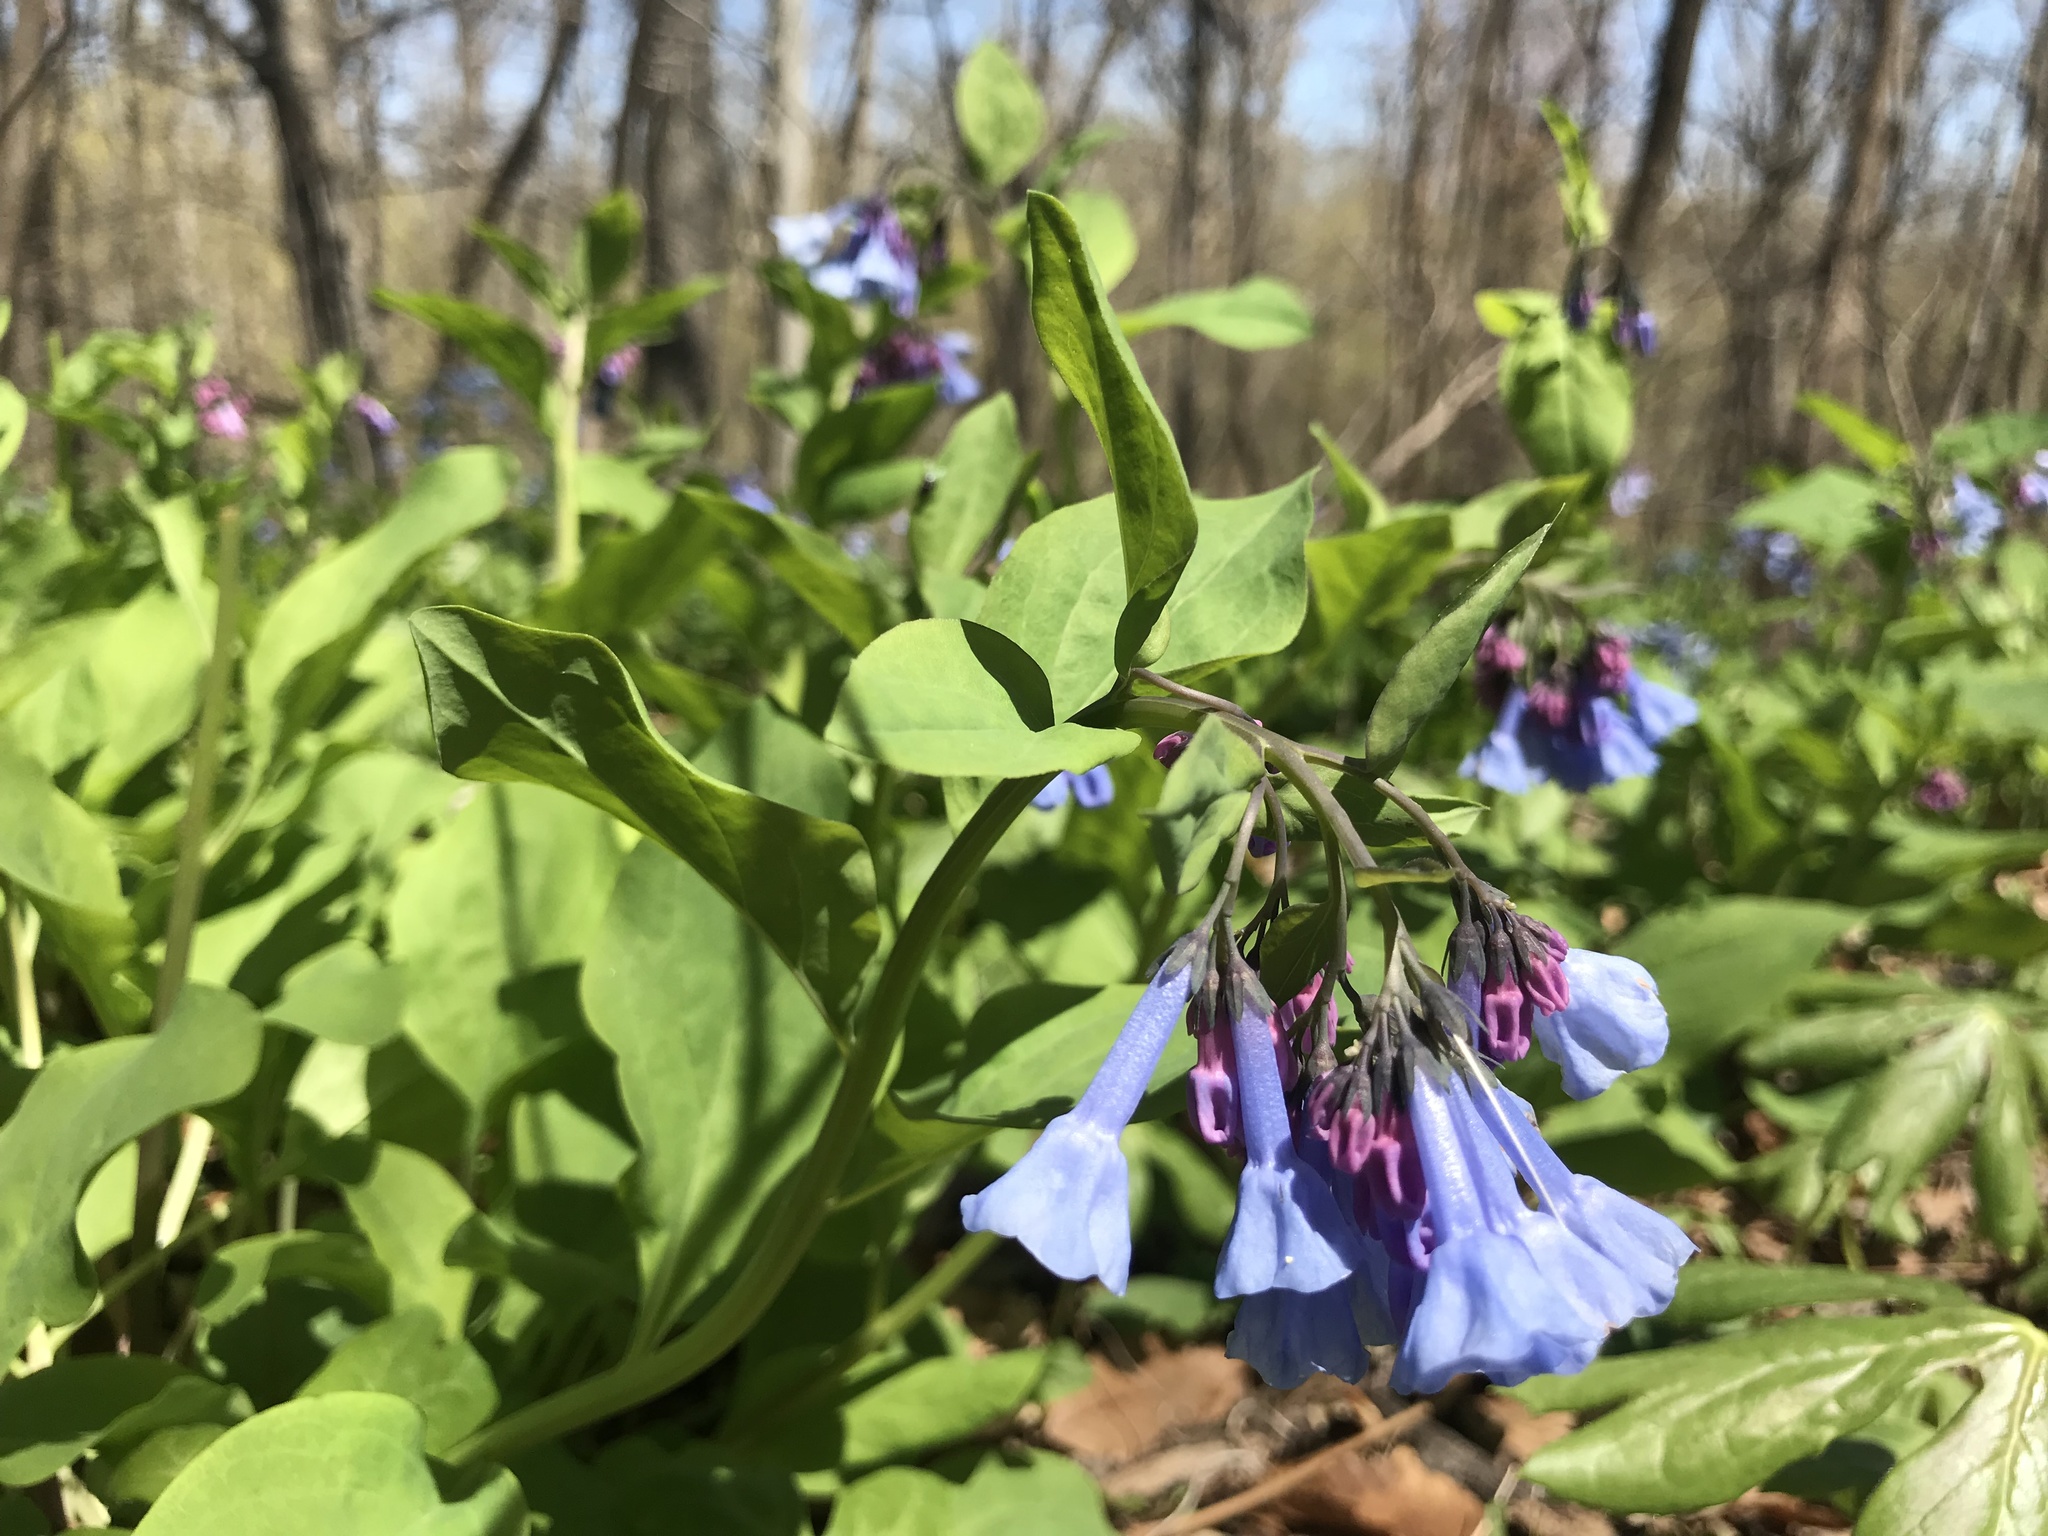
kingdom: Plantae
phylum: Tracheophyta
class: Magnoliopsida
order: Boraginales
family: Boraginaceae
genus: Mertensia
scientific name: Mertensia virginica
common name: Virginia bluebells
